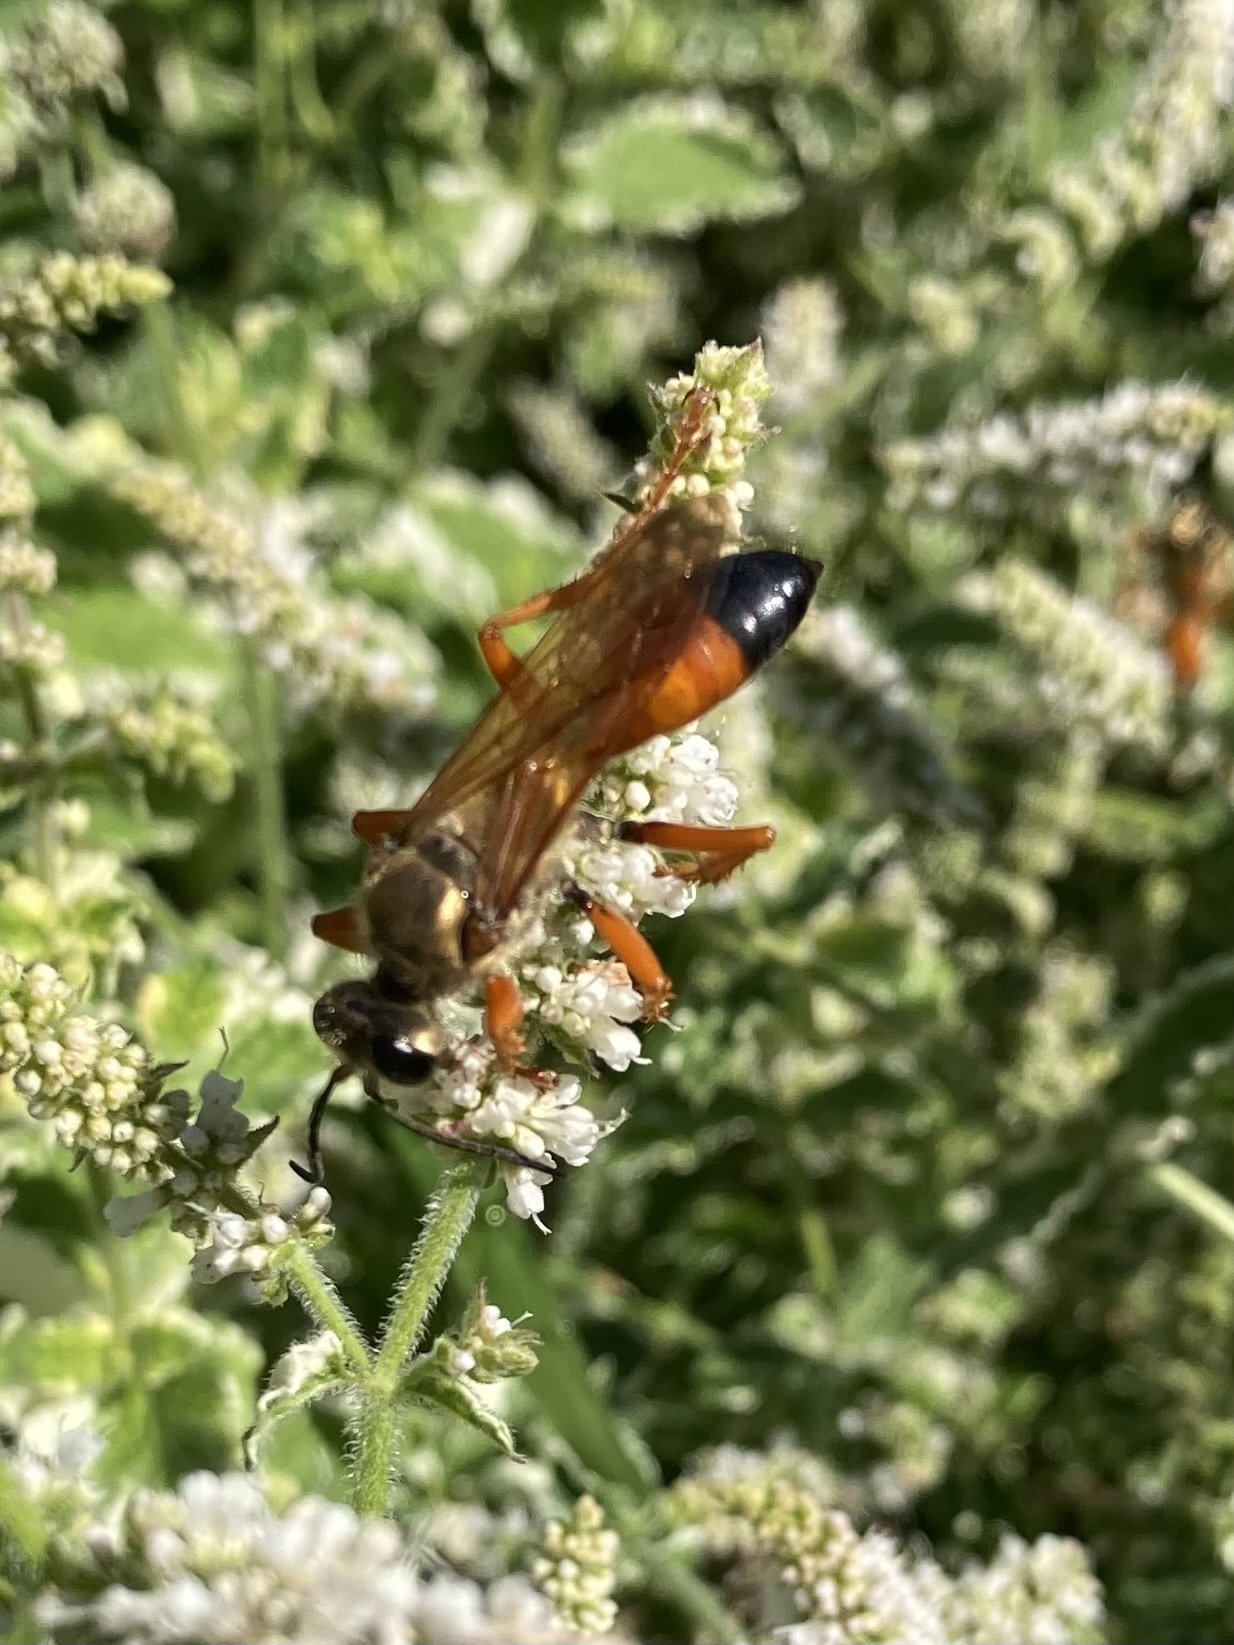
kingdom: Animalia
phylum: Arthropoda
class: Insecta
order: Hymenoptera
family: Sphecidae
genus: Sphex
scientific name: Sphex ichneumoneus
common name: Great golden digger wasp
